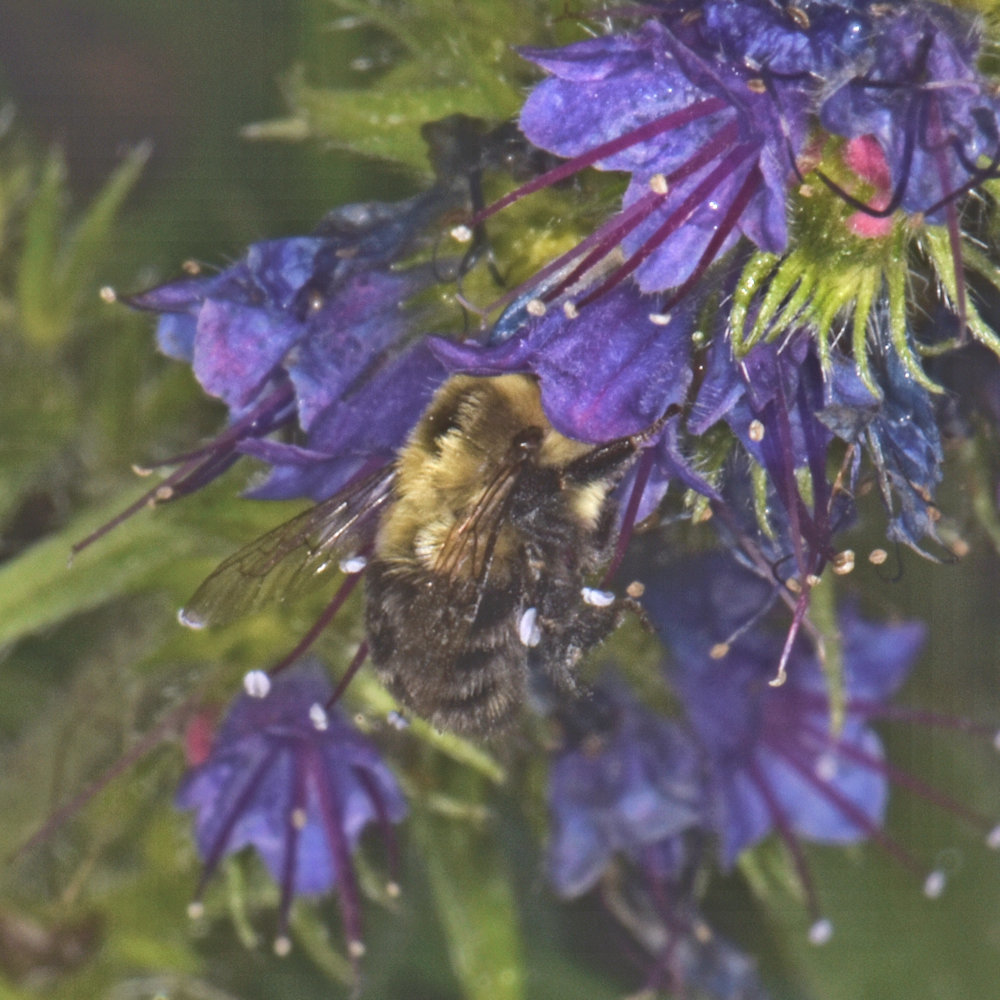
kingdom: Animalia
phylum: Arthropoda
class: Insecta
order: Hymenoptera
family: Apidae
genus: Bombus
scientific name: Bombus impatiens
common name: Common eastern bumble bee
